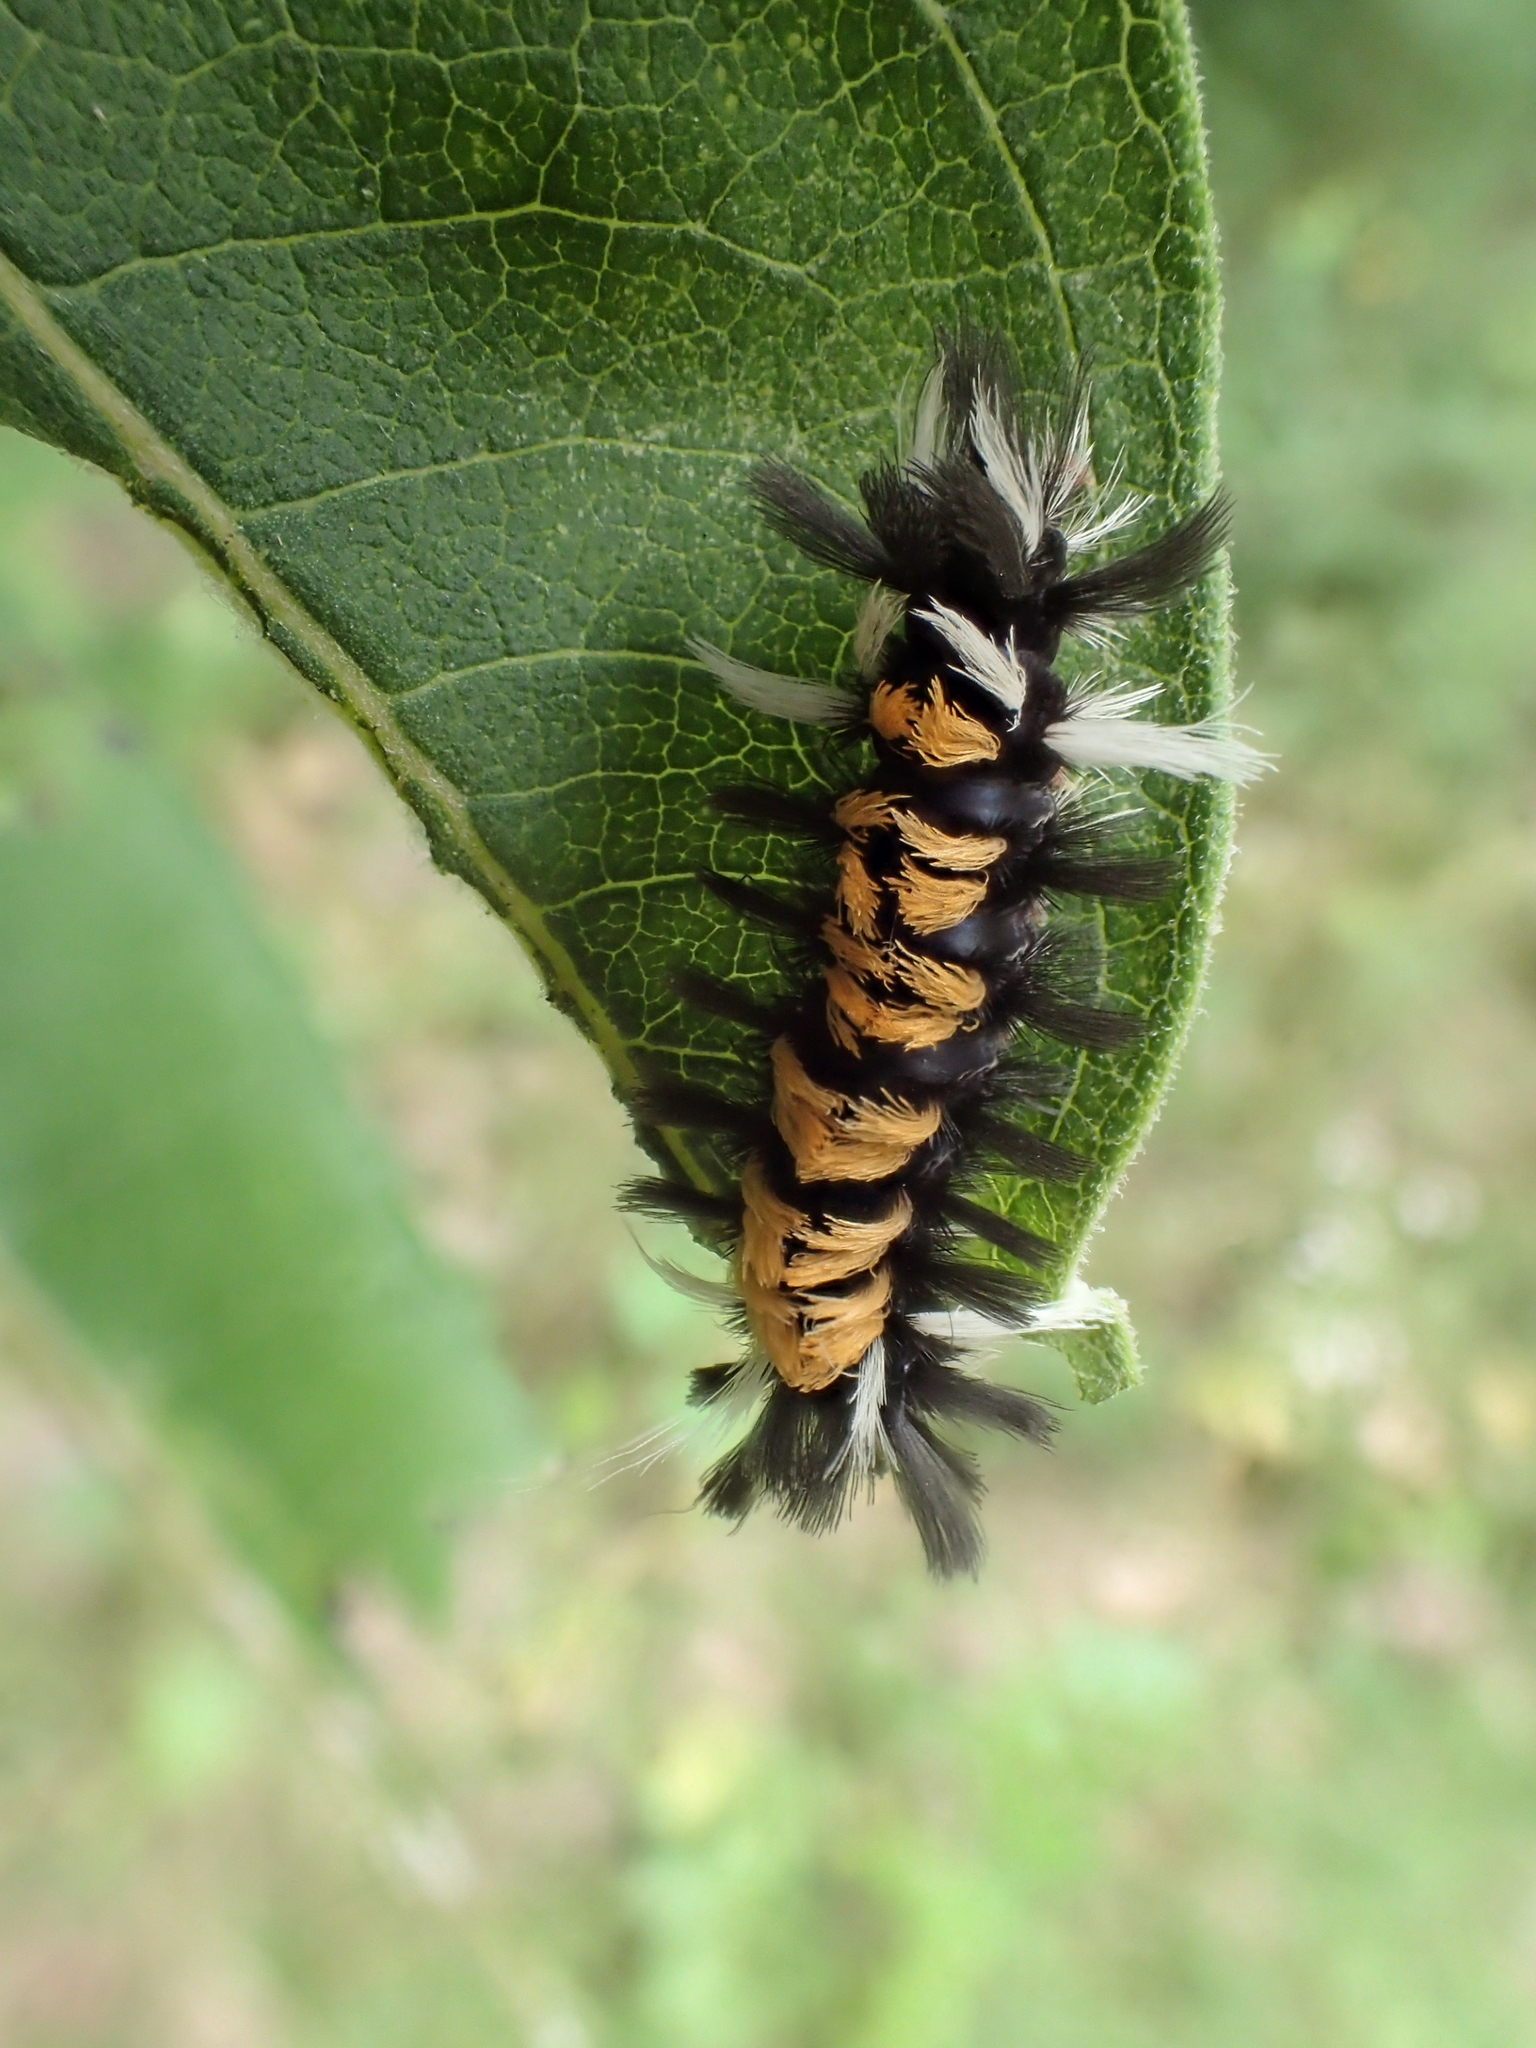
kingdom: Animalia
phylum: Arthropoda
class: Insecta
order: Lepidoptera
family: Erebidae
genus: Euchaetes
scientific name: Euchaetes egle
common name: Milkweed tussock moth
